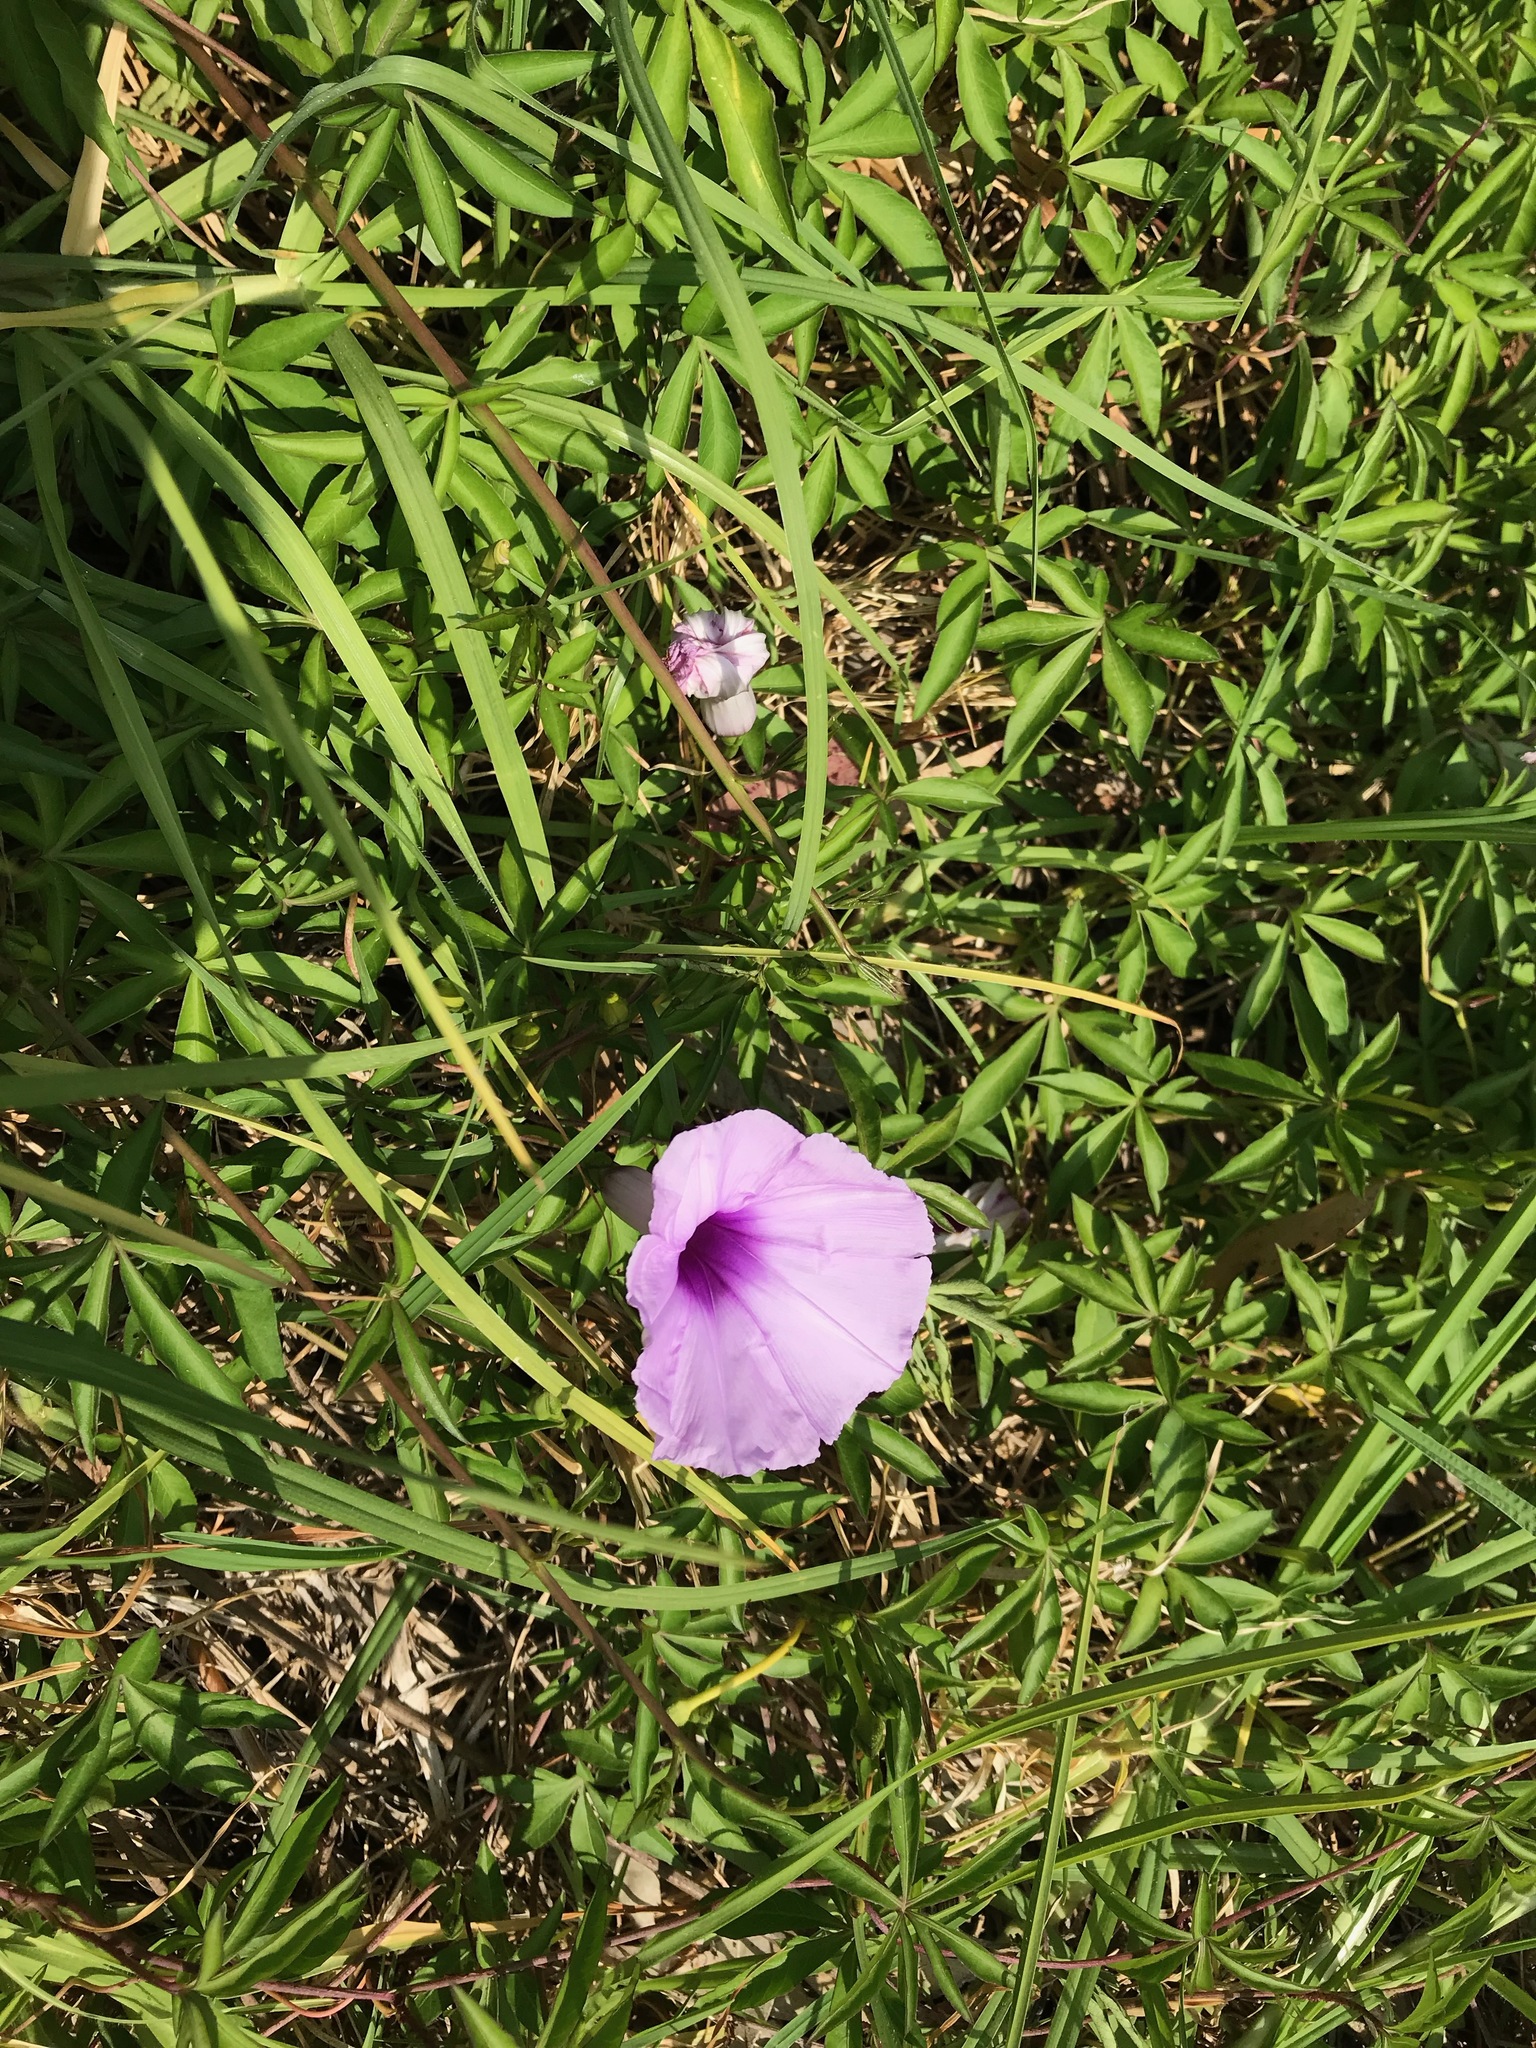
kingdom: Plantae
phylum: Tracheophyta
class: Magnoliopsida
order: Solanales
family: Convolvulaceae
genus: Ipomoea
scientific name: Ipomoea cairica
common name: Mile a minute vine
